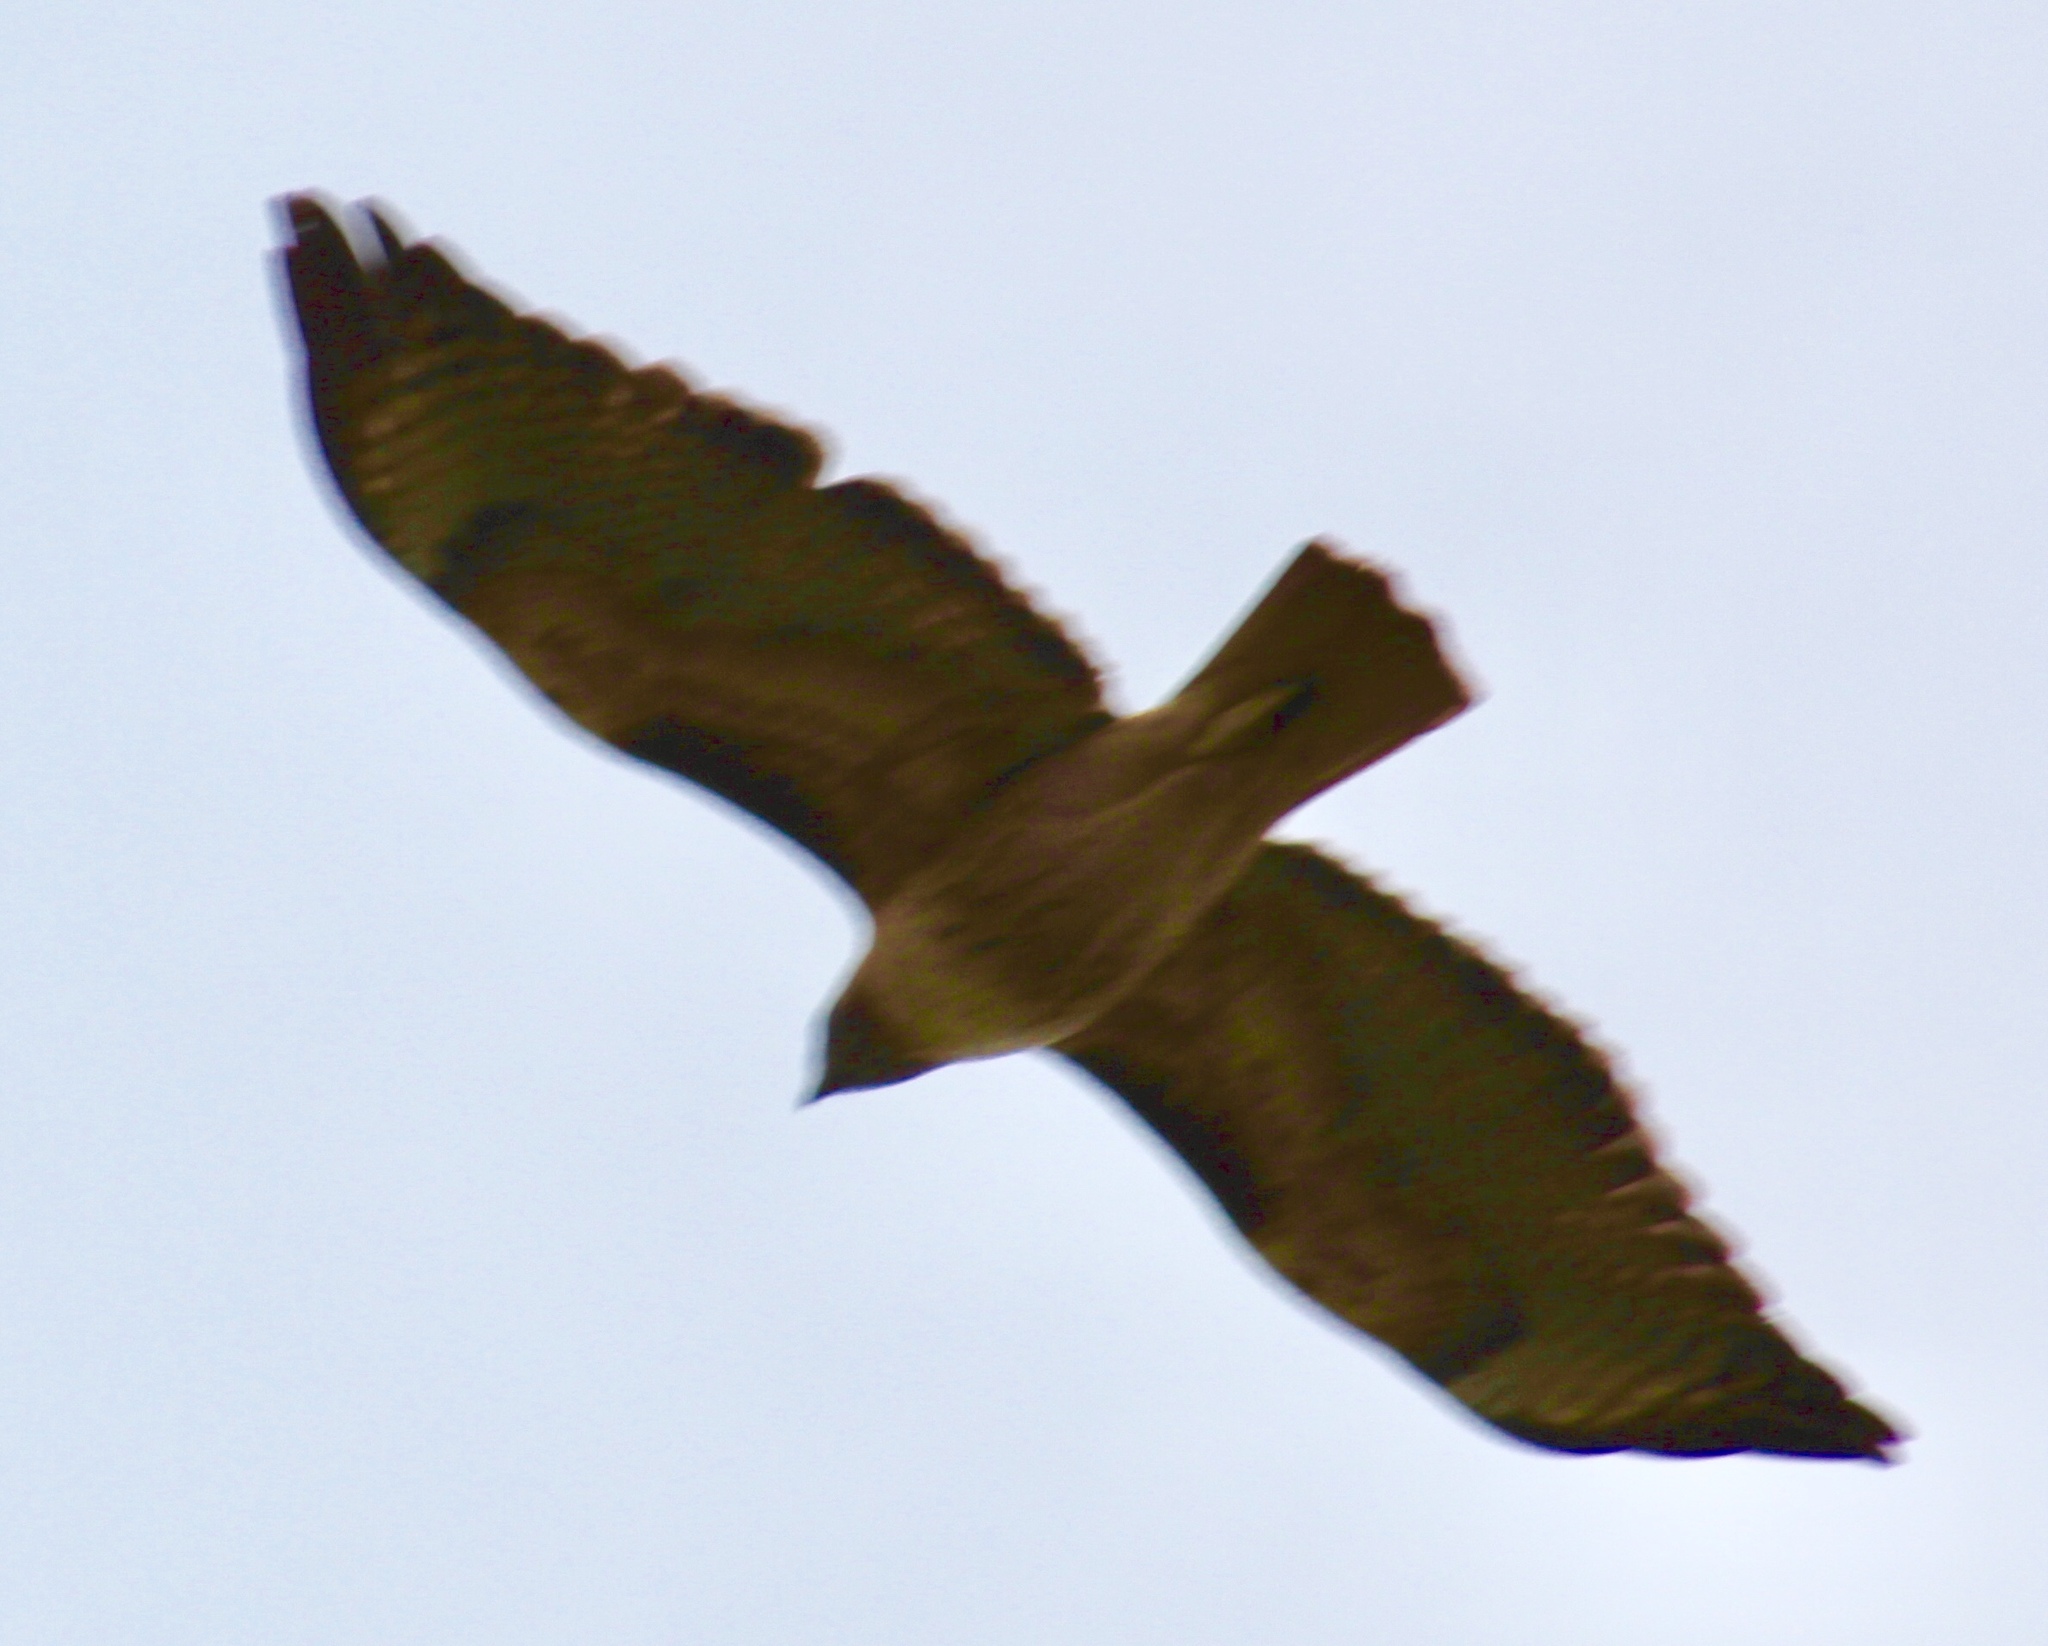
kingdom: Animalia
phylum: Chordata
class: Aves
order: Accipitriformes
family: Accipitridae
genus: Buteo
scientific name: Buteo jamaicensis
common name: Red-tailed hawk
